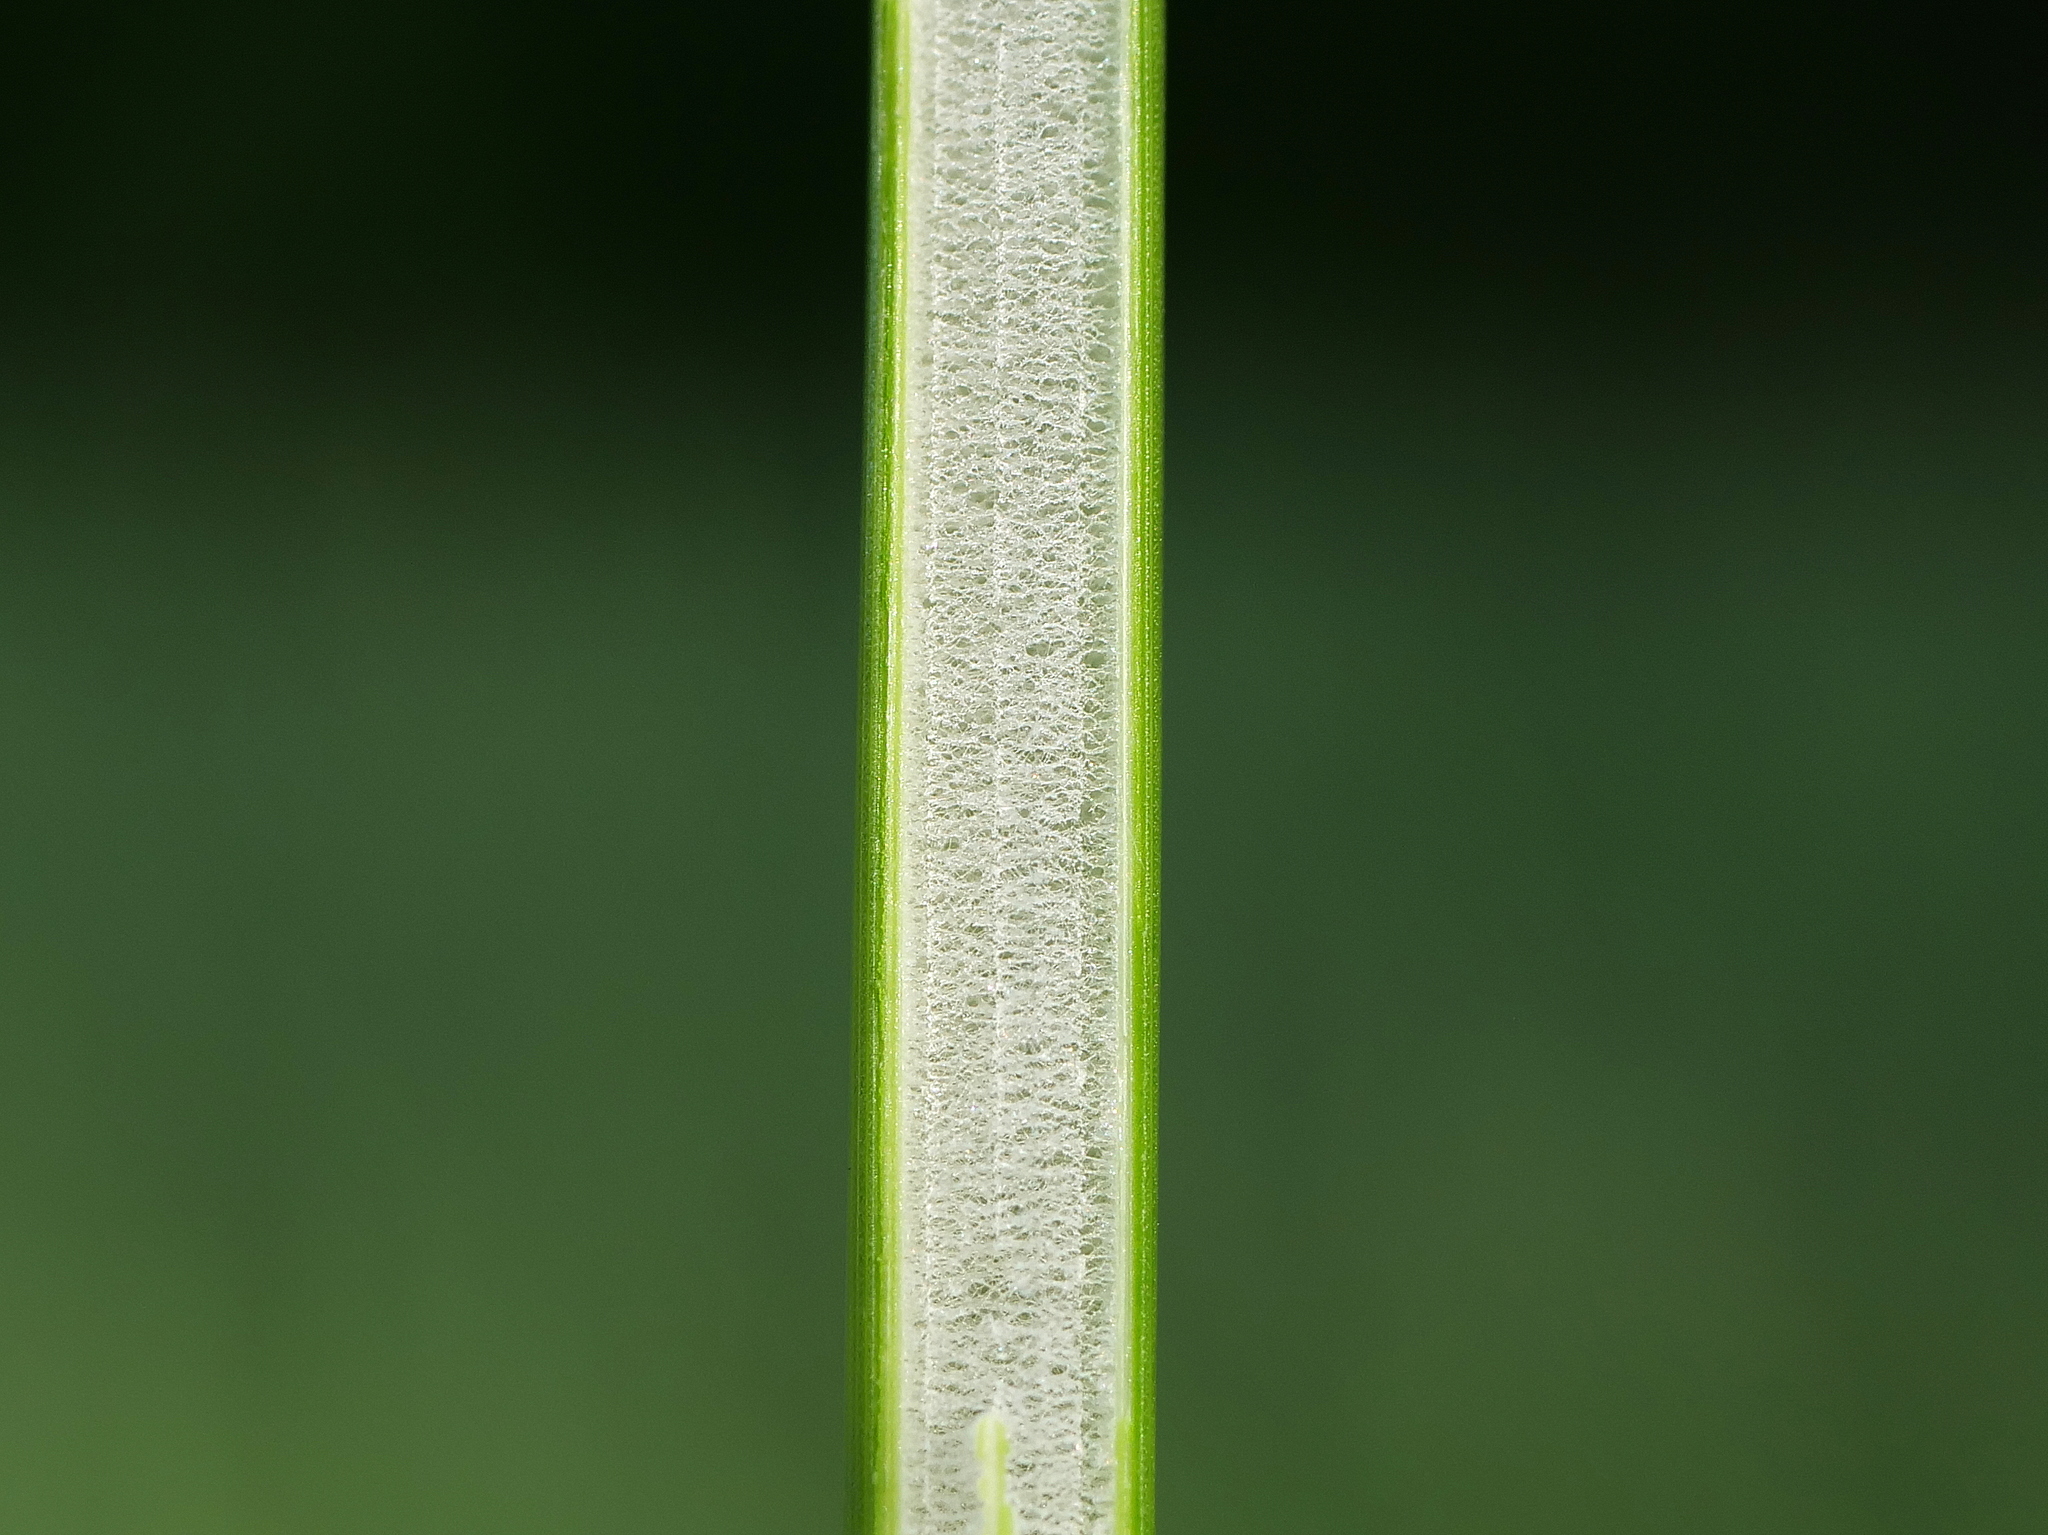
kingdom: Plantae
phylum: Tracheophyta
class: Liliopsida
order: Poales
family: Juncaceae
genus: Juncus
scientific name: Juncus effusus
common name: Soft rush
